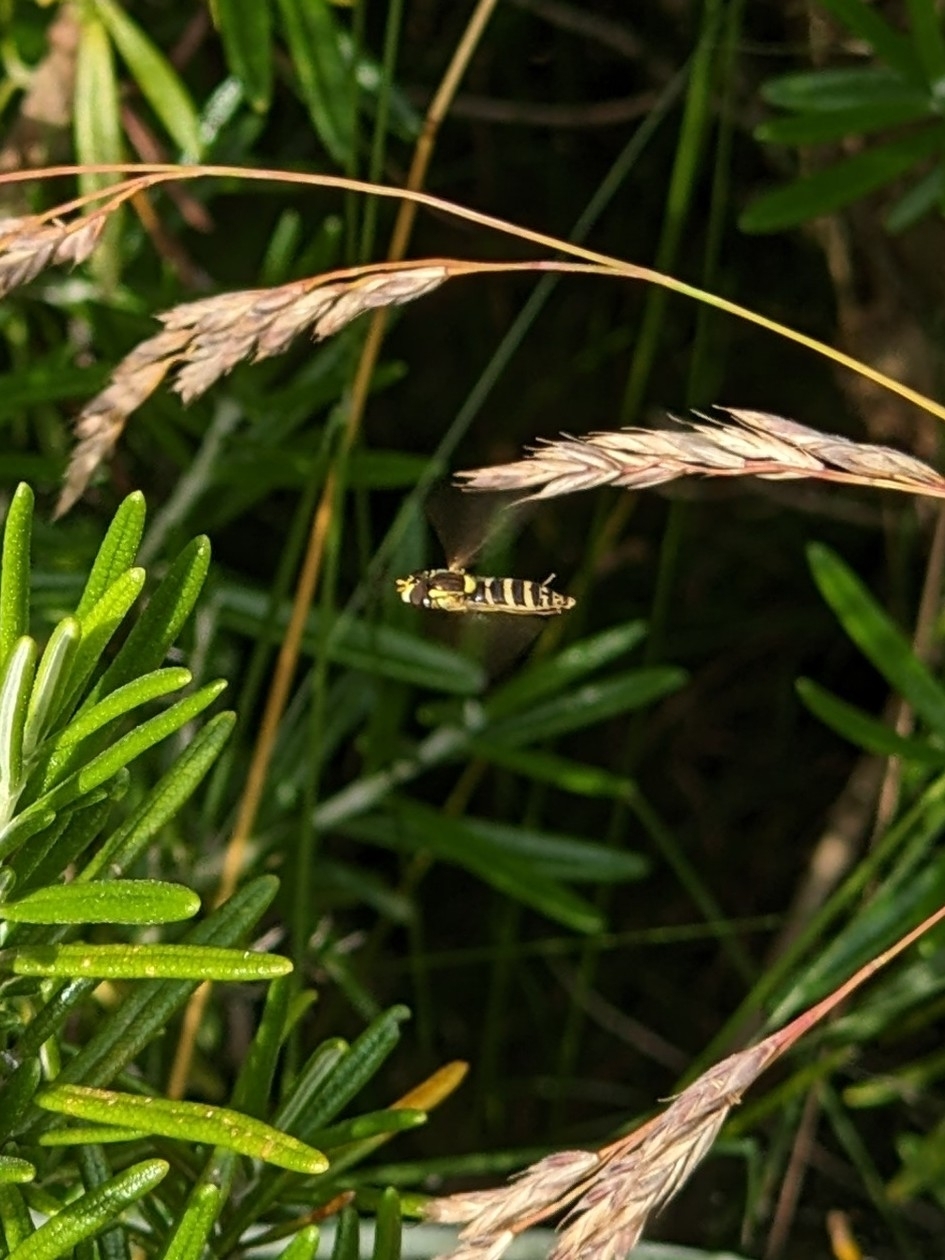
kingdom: Animalia
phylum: Arthropoda
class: Insecta
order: Diptera
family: Syrphidae
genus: Sphaerophoria
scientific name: Sphaerophoria
